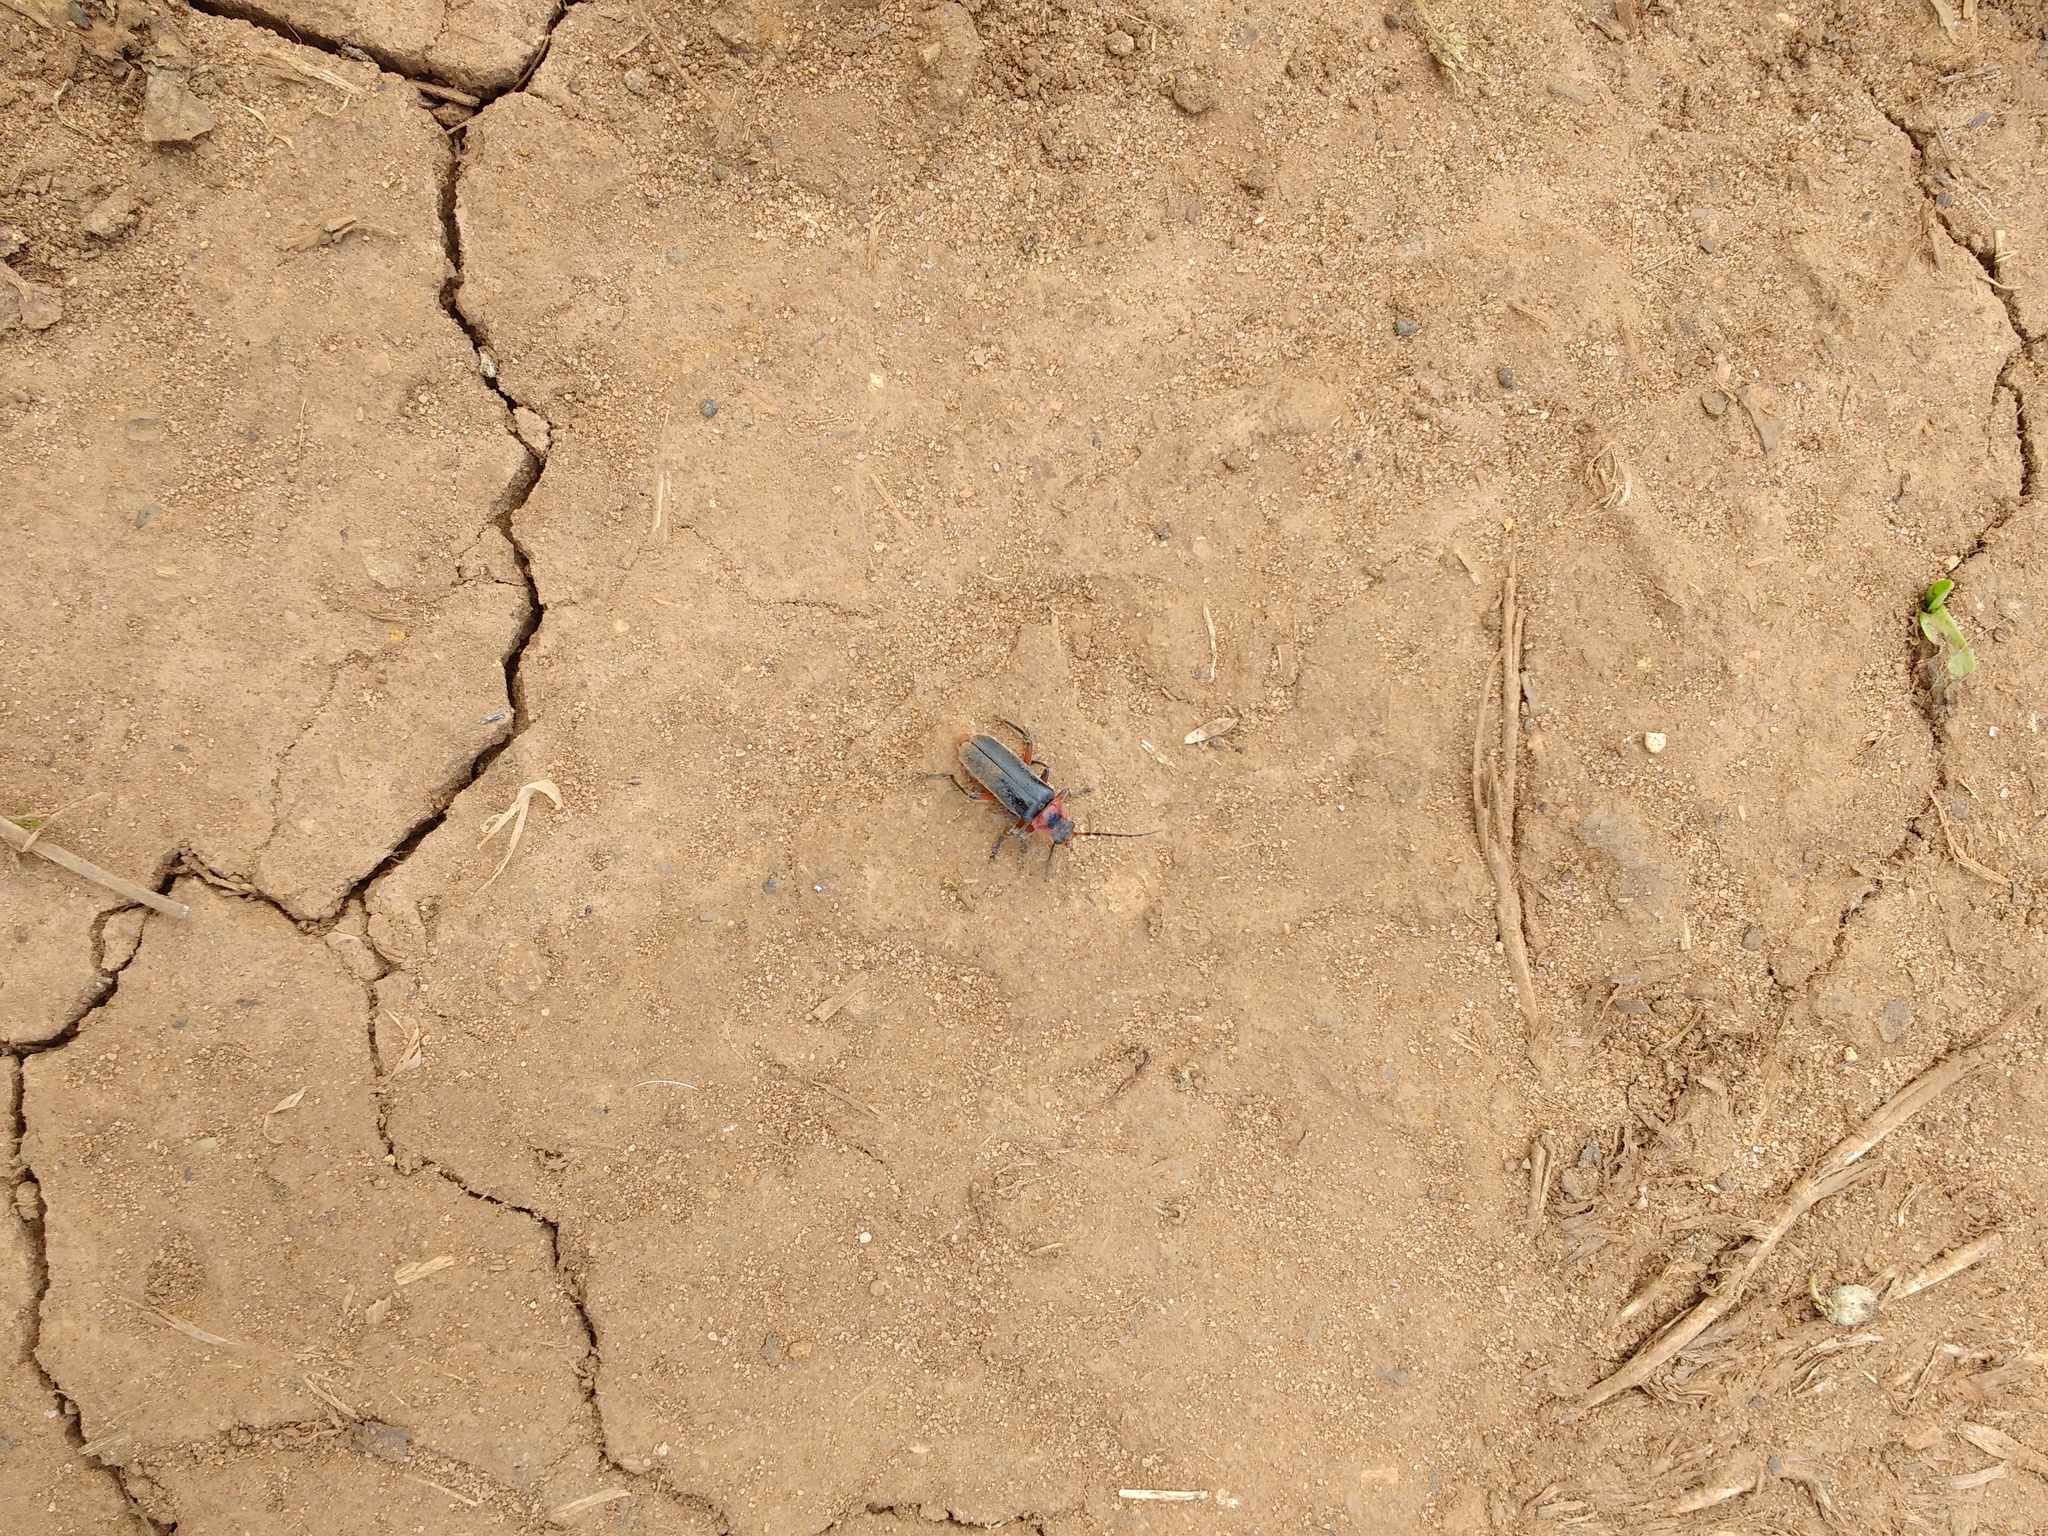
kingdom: Animalia
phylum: Arthropoda
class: Insecta
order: Coleoptera
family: Cantharidae
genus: Cantharis
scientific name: Cantharis rustica
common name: Soldier beetle
